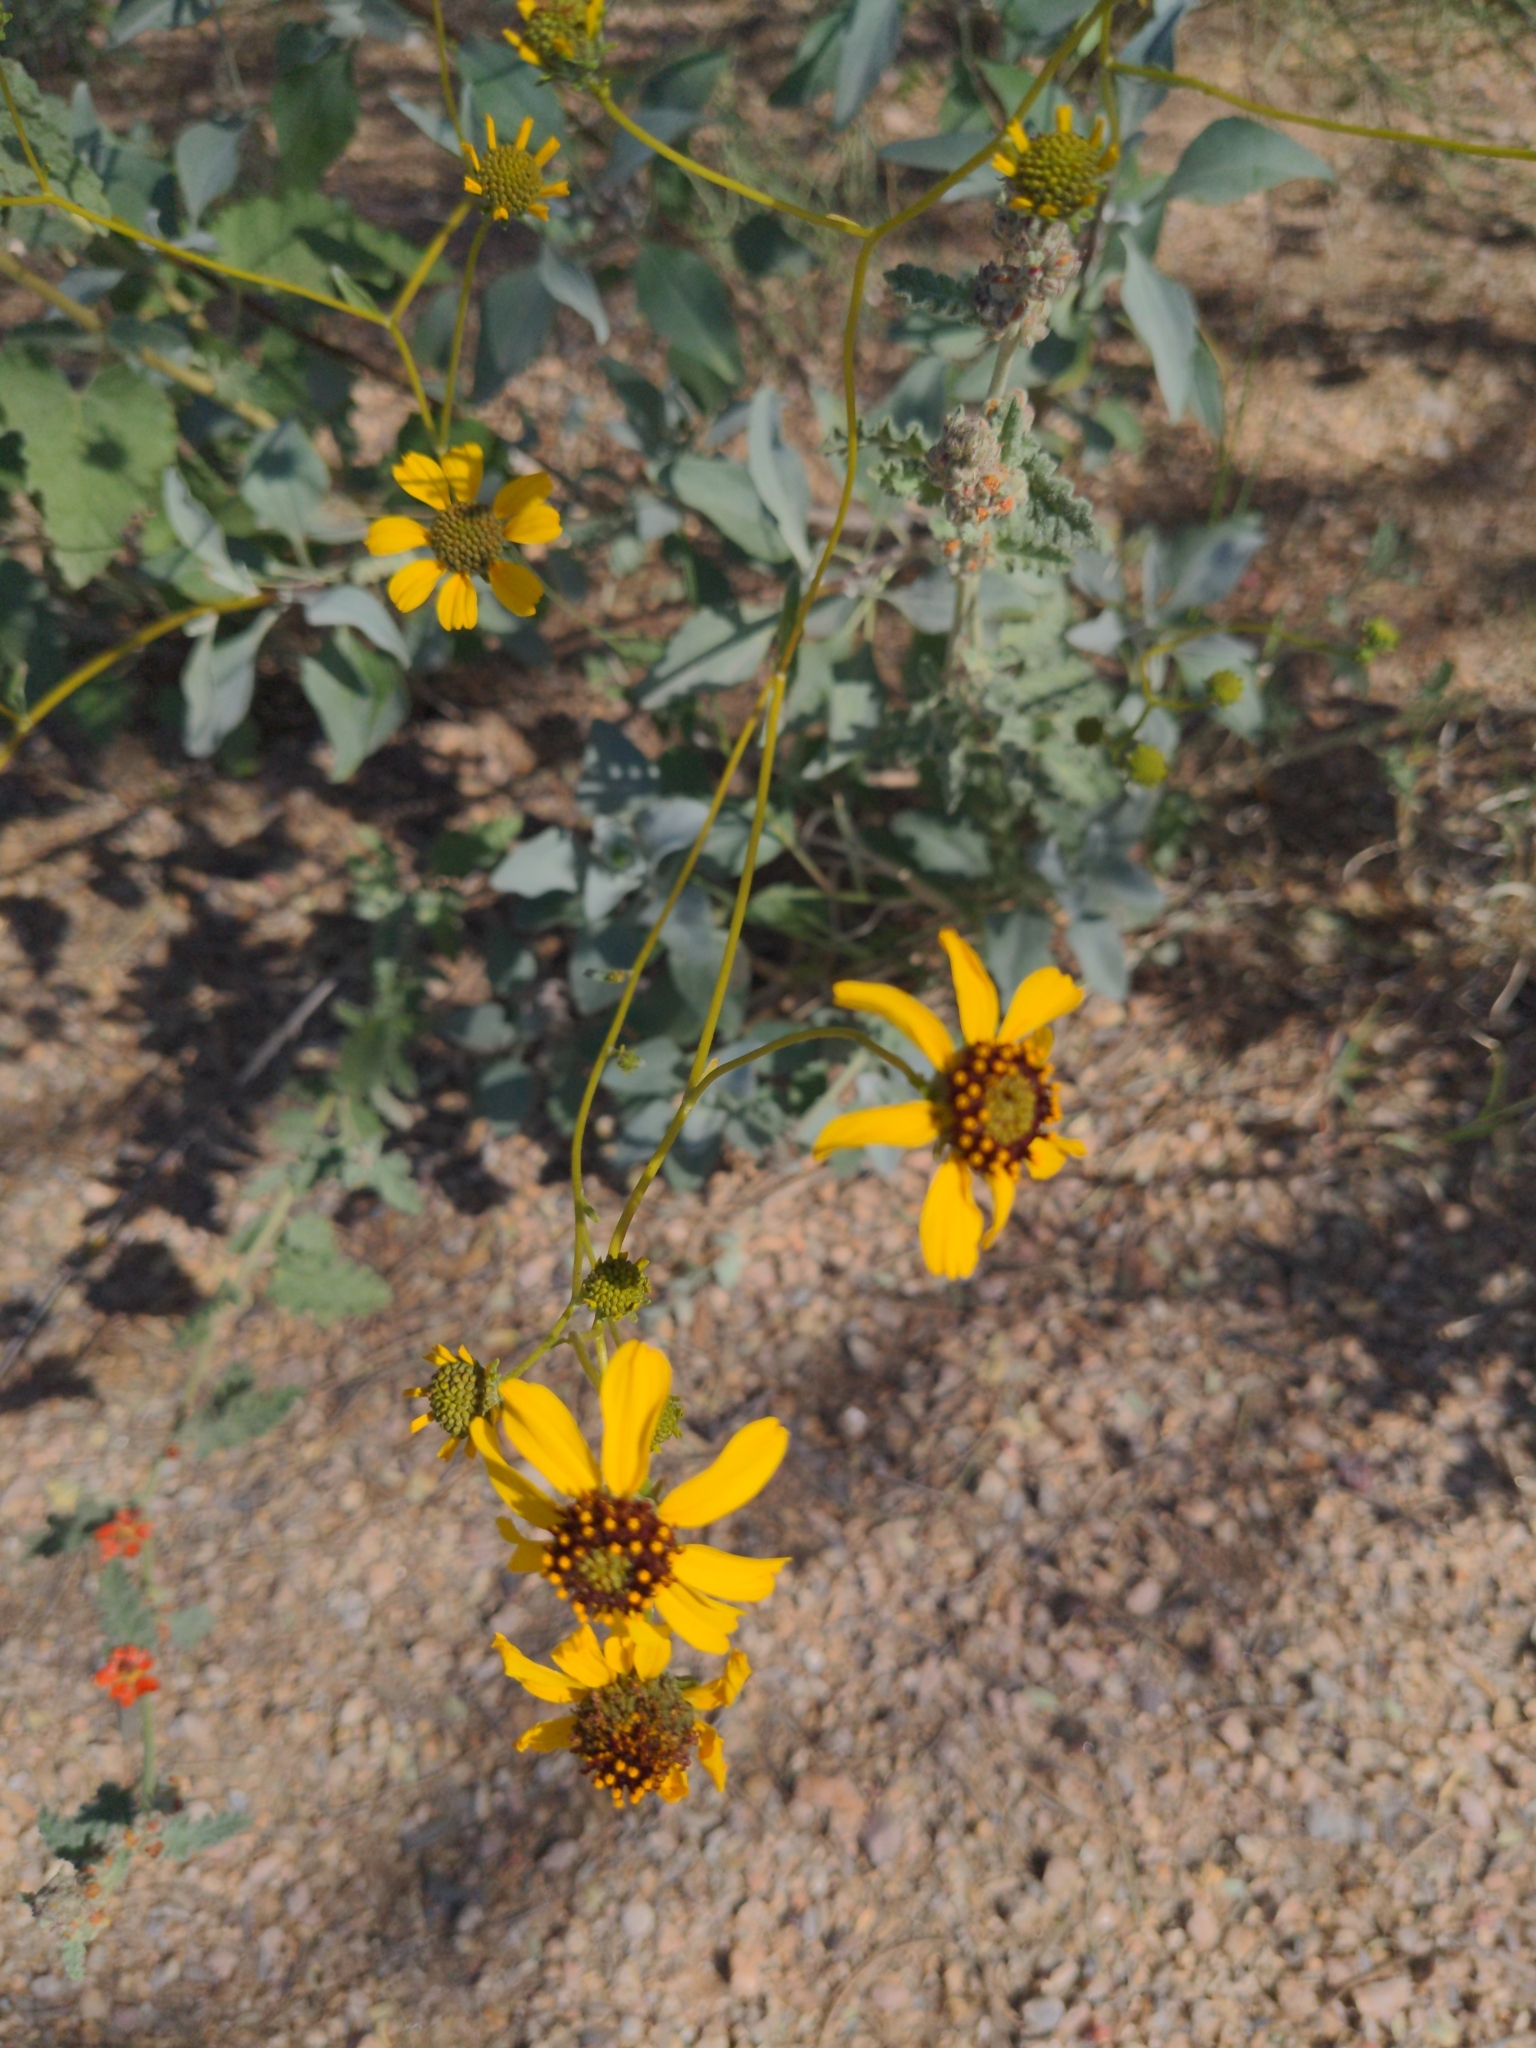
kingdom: Plantae
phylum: Tracheophyta
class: Magnoliopsida
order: Asterales
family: Asteraceae
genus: Encelia
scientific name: Encelia farinosa
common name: Brittlebush
